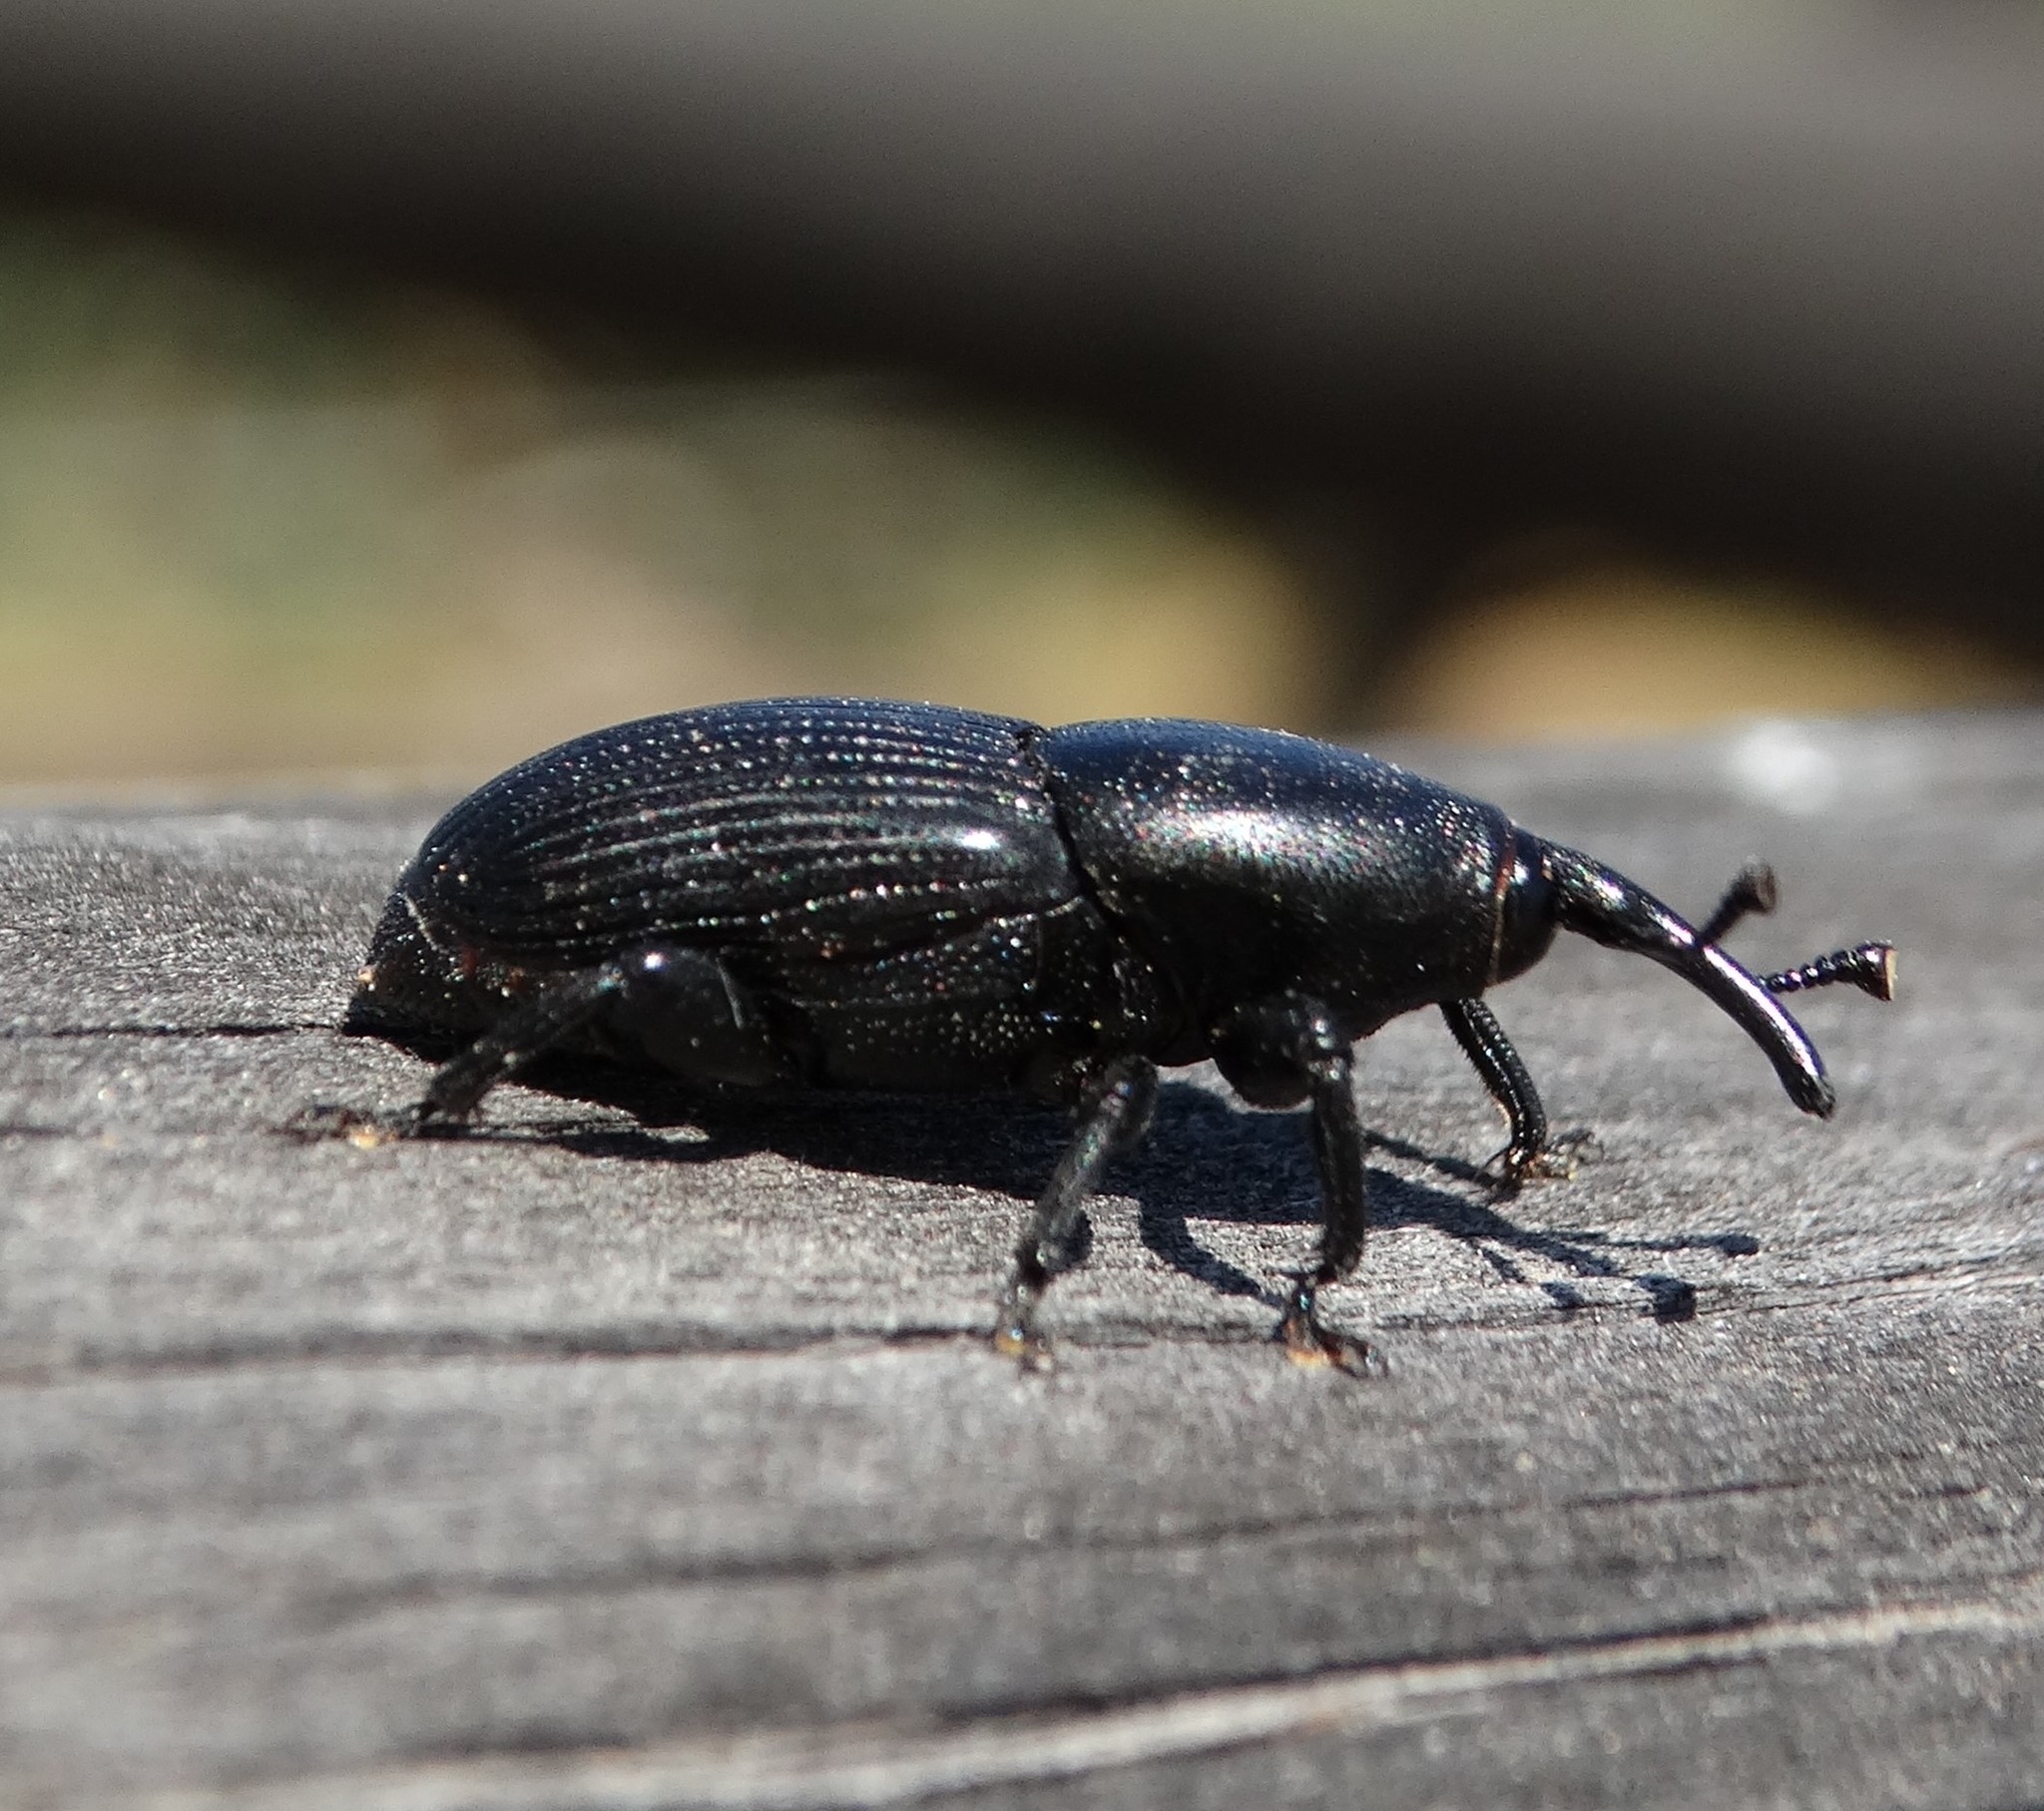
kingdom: Animalia
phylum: Arthropoda
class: Insecta
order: Coleoptera
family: Dryophthoridae
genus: Scyphophorus
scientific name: Scyphophorus acupunctatus
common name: Weevil
